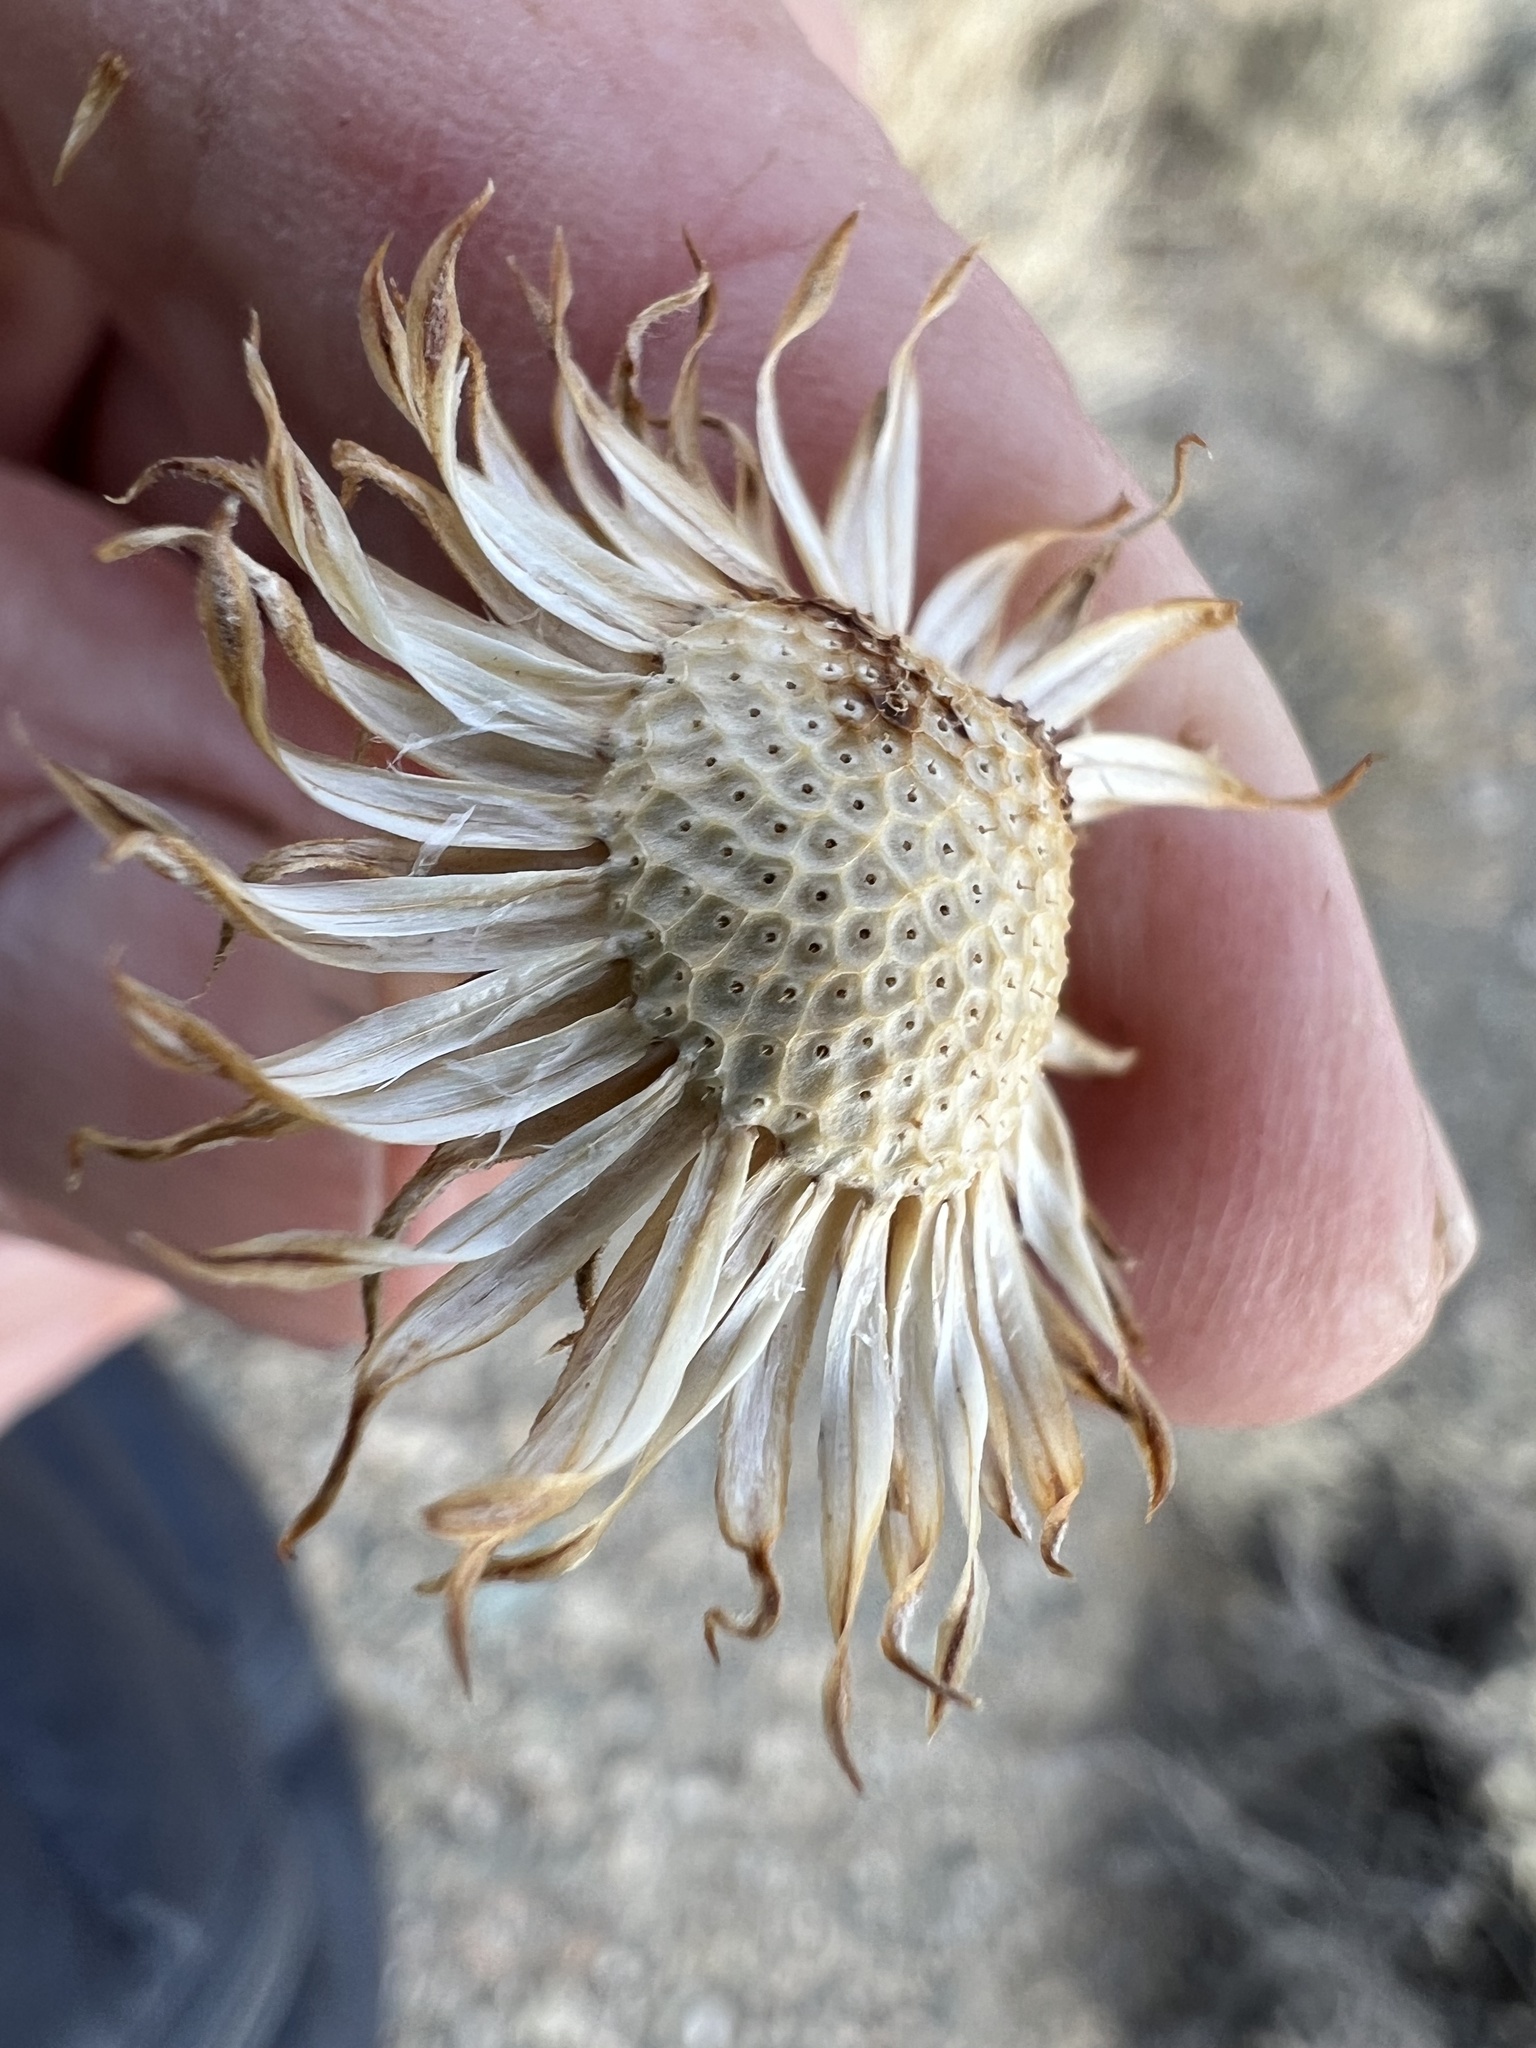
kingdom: Plantae
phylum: Tracheophyta
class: Magnoliopsida
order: Asterales
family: Asteraceae
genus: Xylorhiza
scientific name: Xylorhiza tortifolia
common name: Hurt-leaf woody-aster
